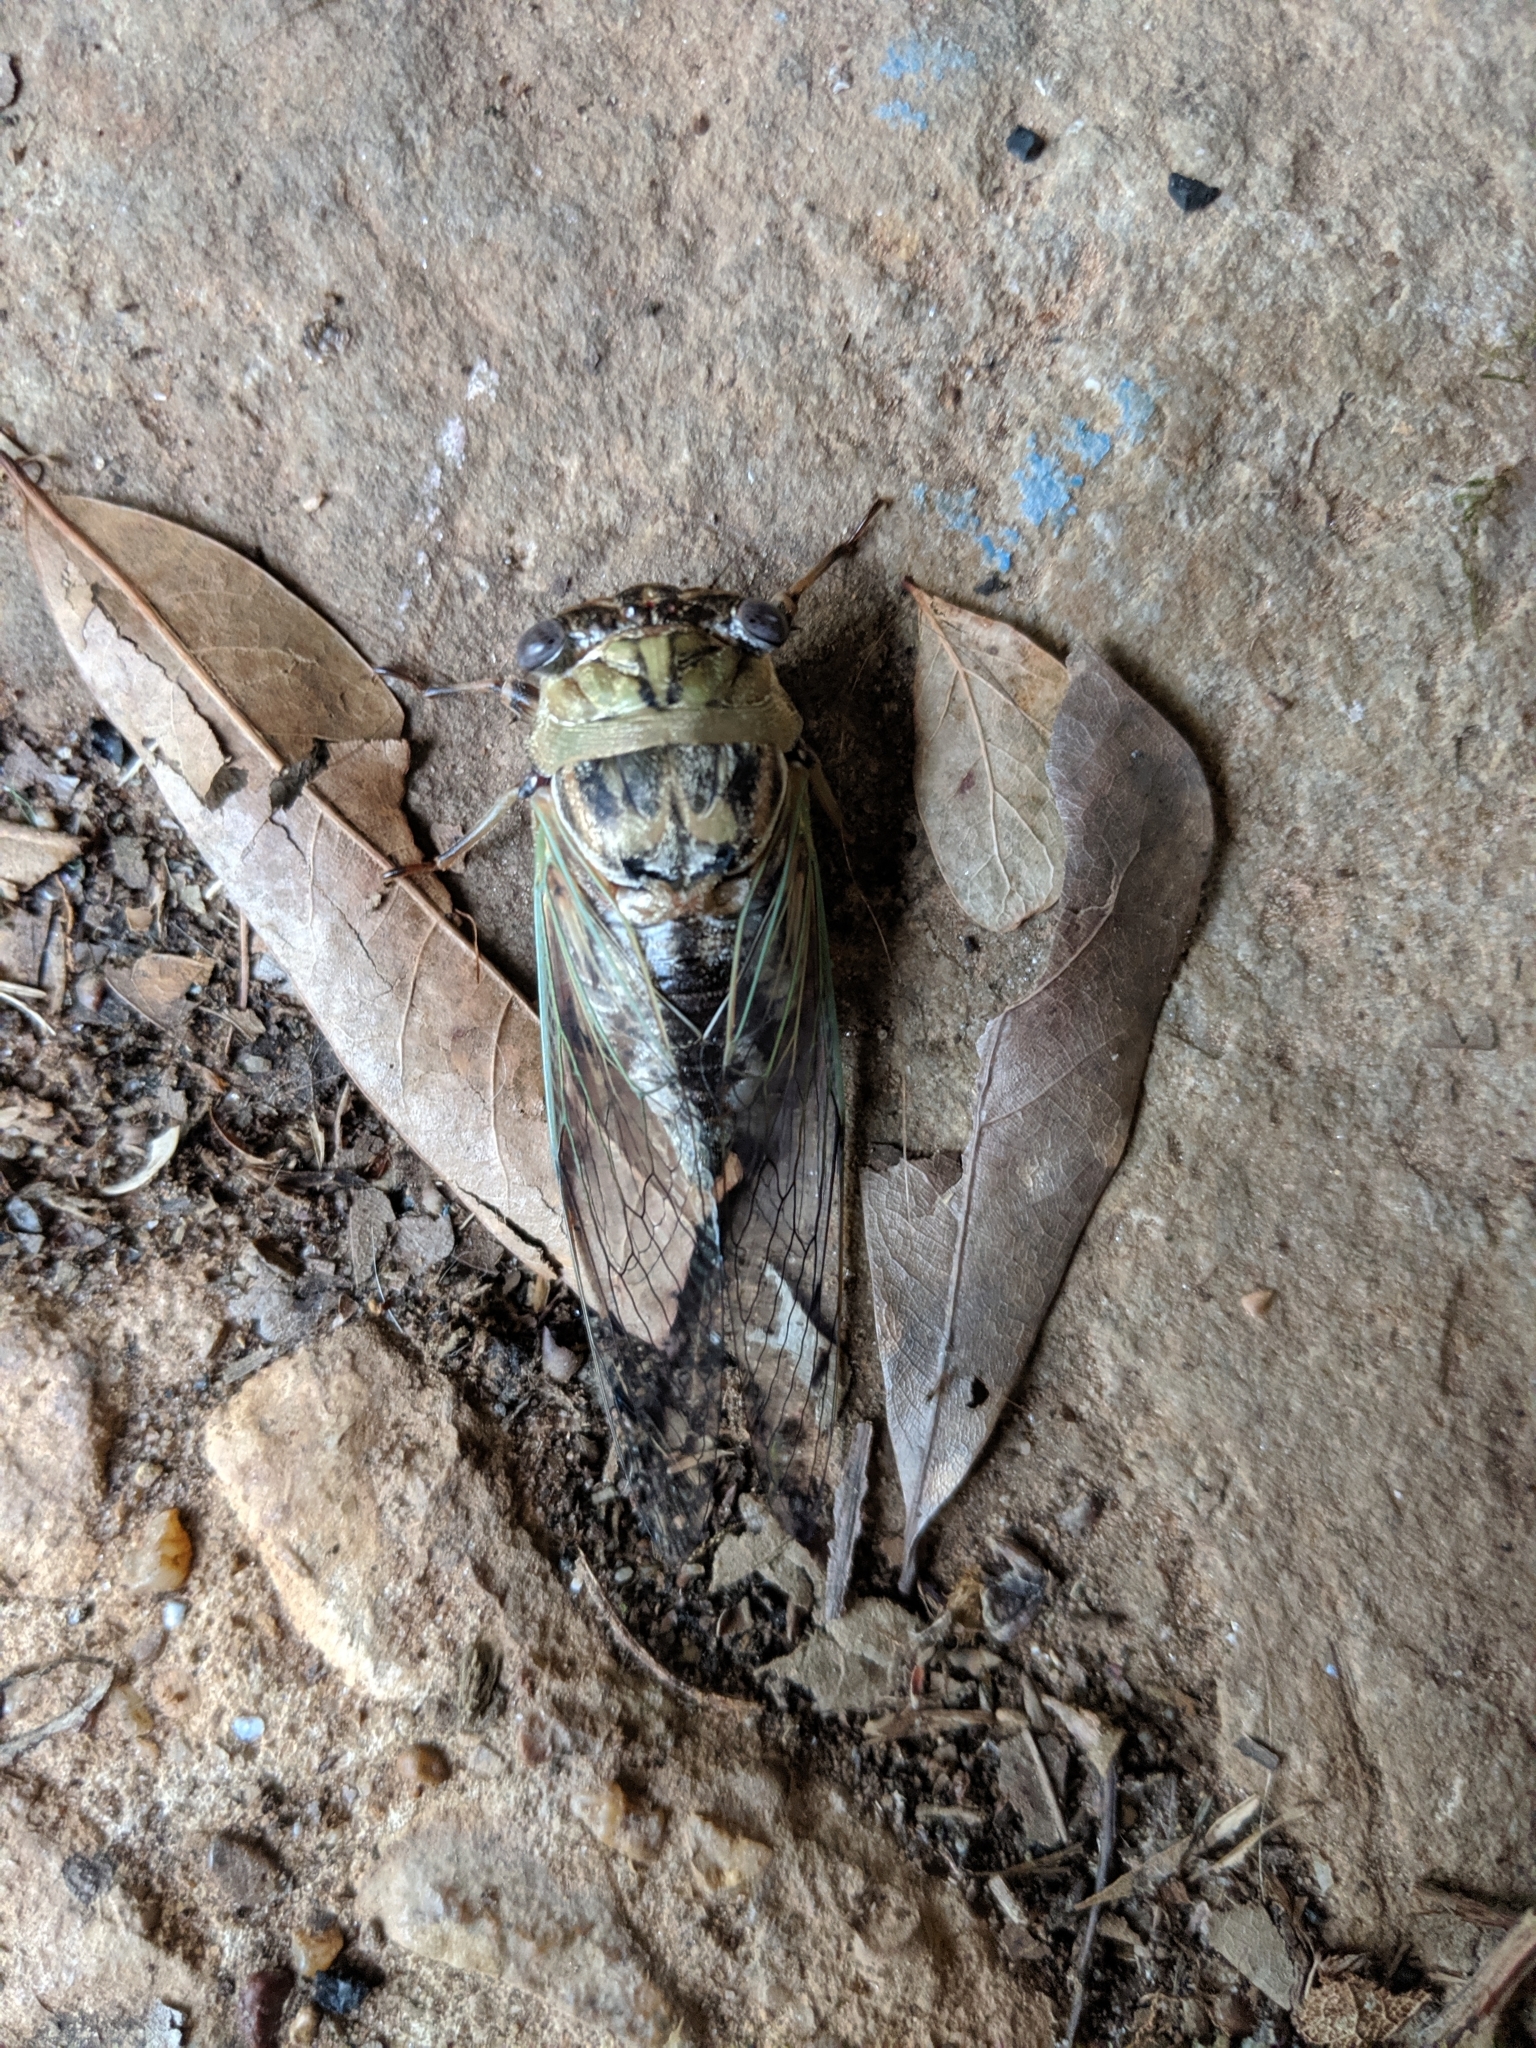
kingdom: Animalia
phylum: Arthropoda
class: Insecta
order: Hemiptera
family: Cicadidae
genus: Megatibicen
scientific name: Megatibicen resh
